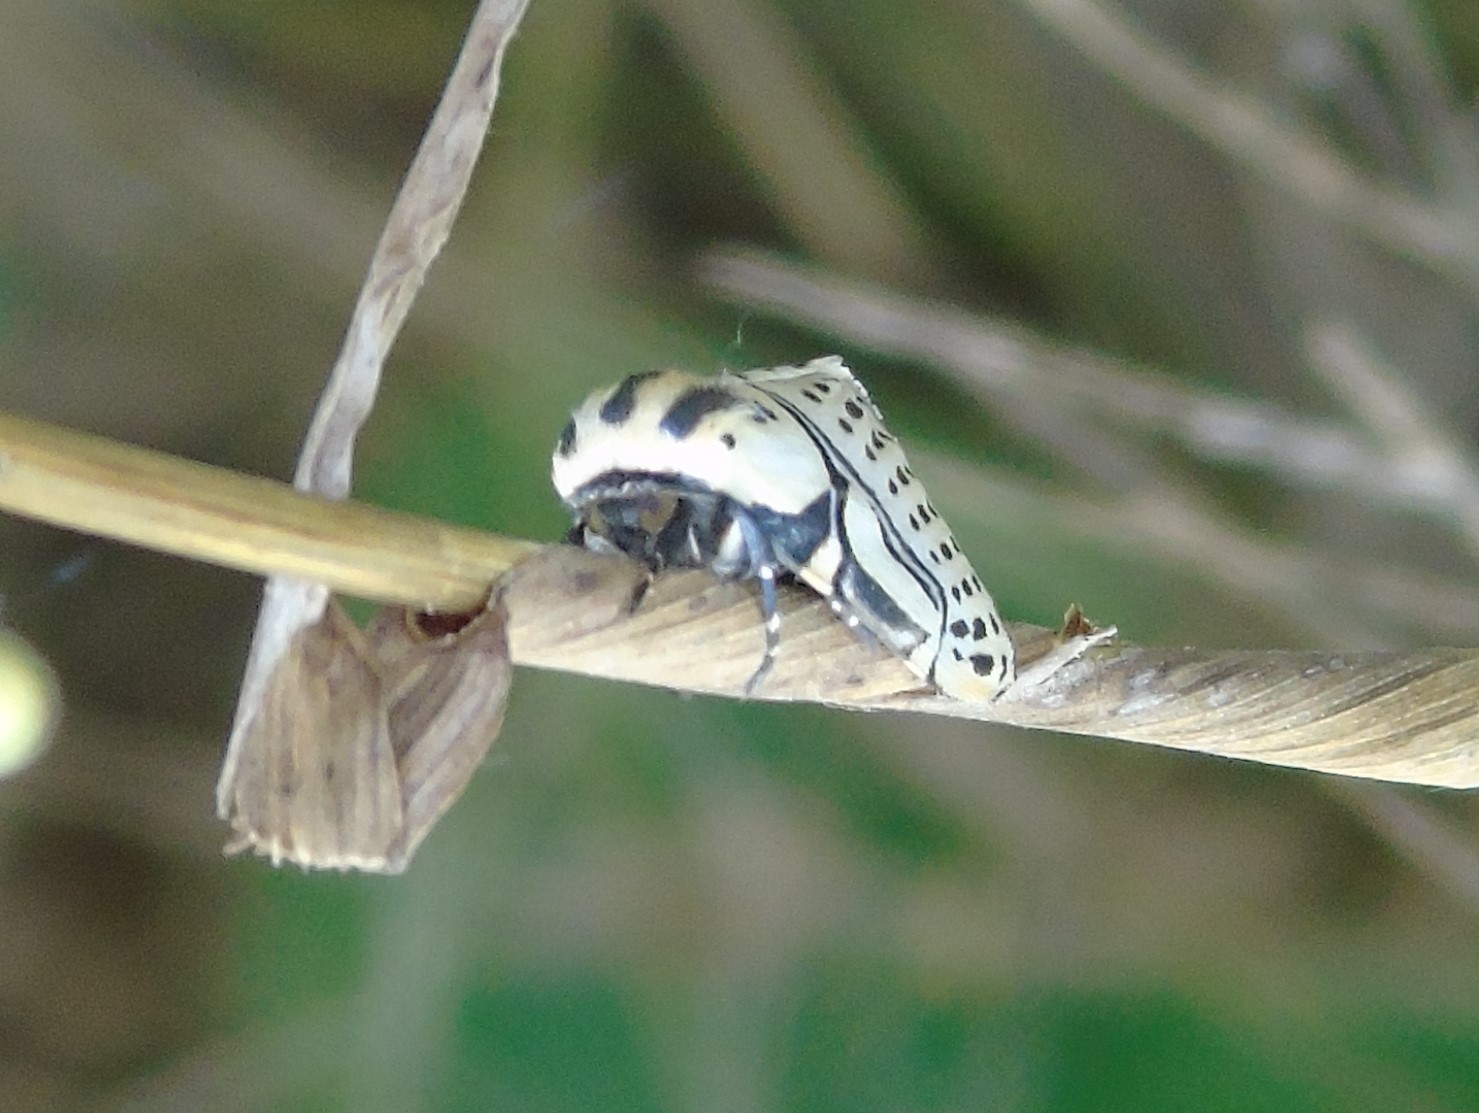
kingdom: Animalia
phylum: Arthropoda
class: Insecta
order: Lepidoptera
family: Erebidae
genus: Diphthera
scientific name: Diphthera festiva
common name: Hieroglyphic moth
